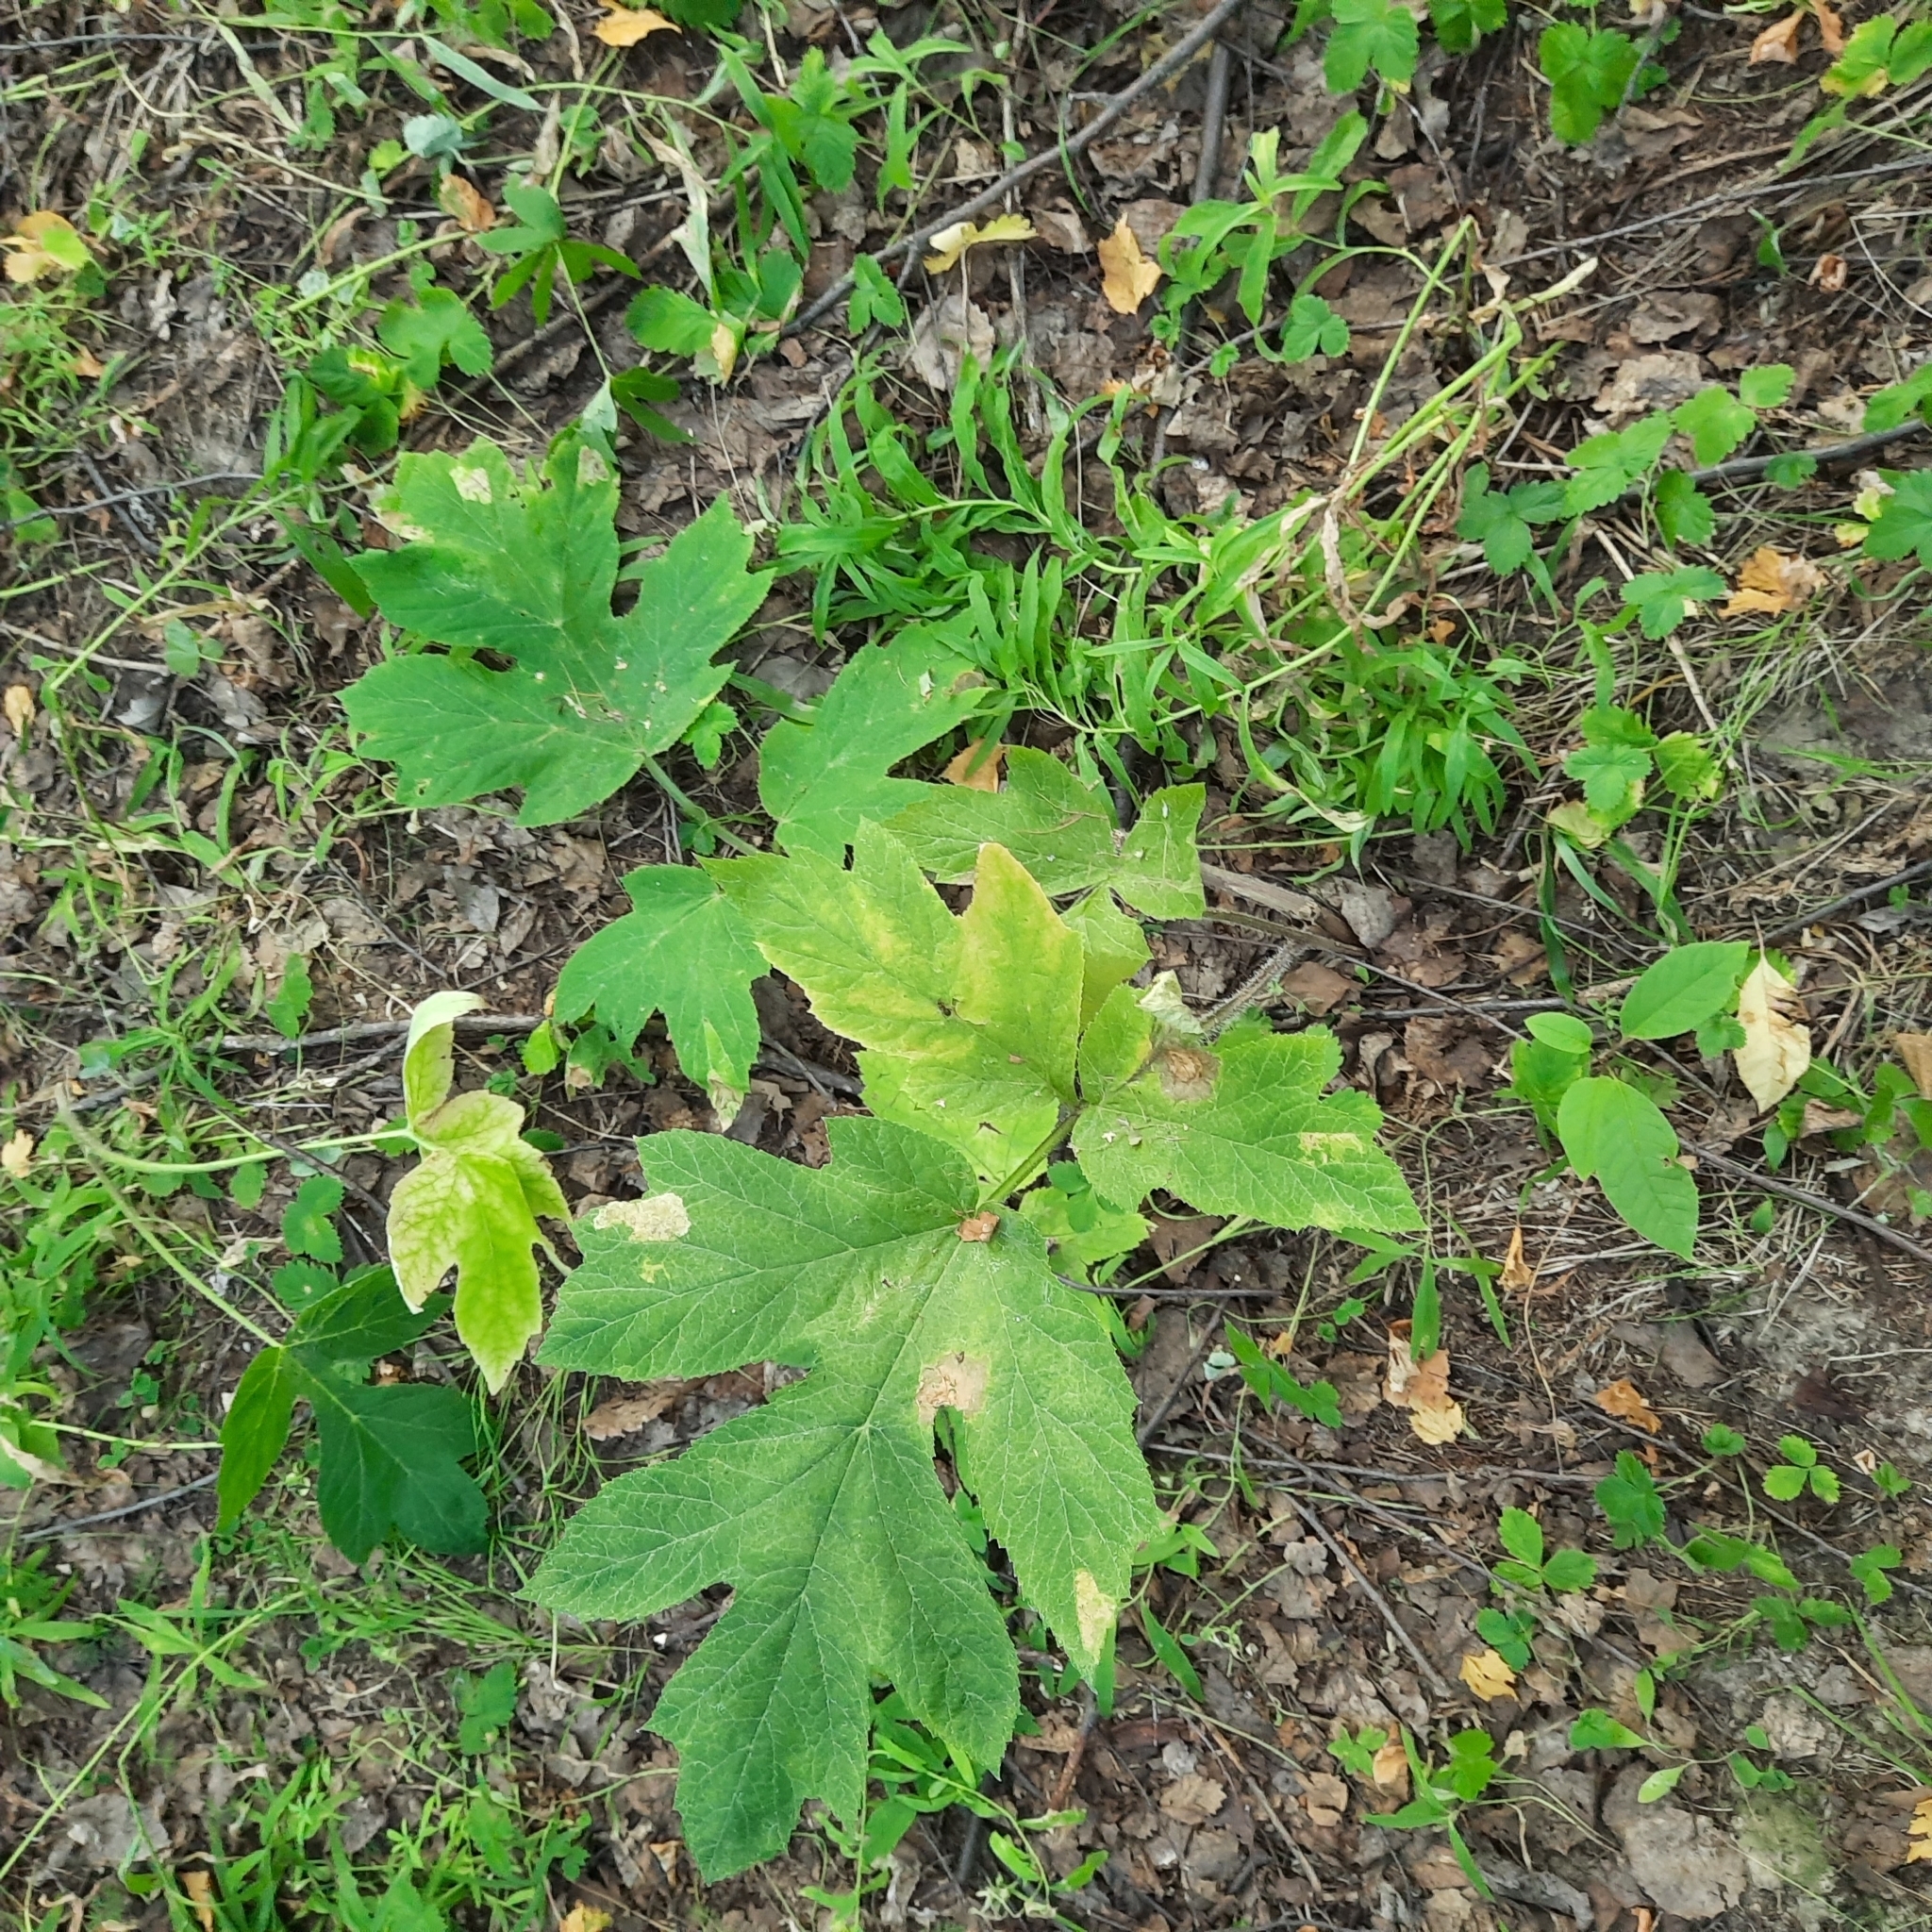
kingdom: Plantae
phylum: Tracheophyta
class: Magnoliopsida
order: Apiales
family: Apiaceae
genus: Heracleum
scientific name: Heracleum dissectum
